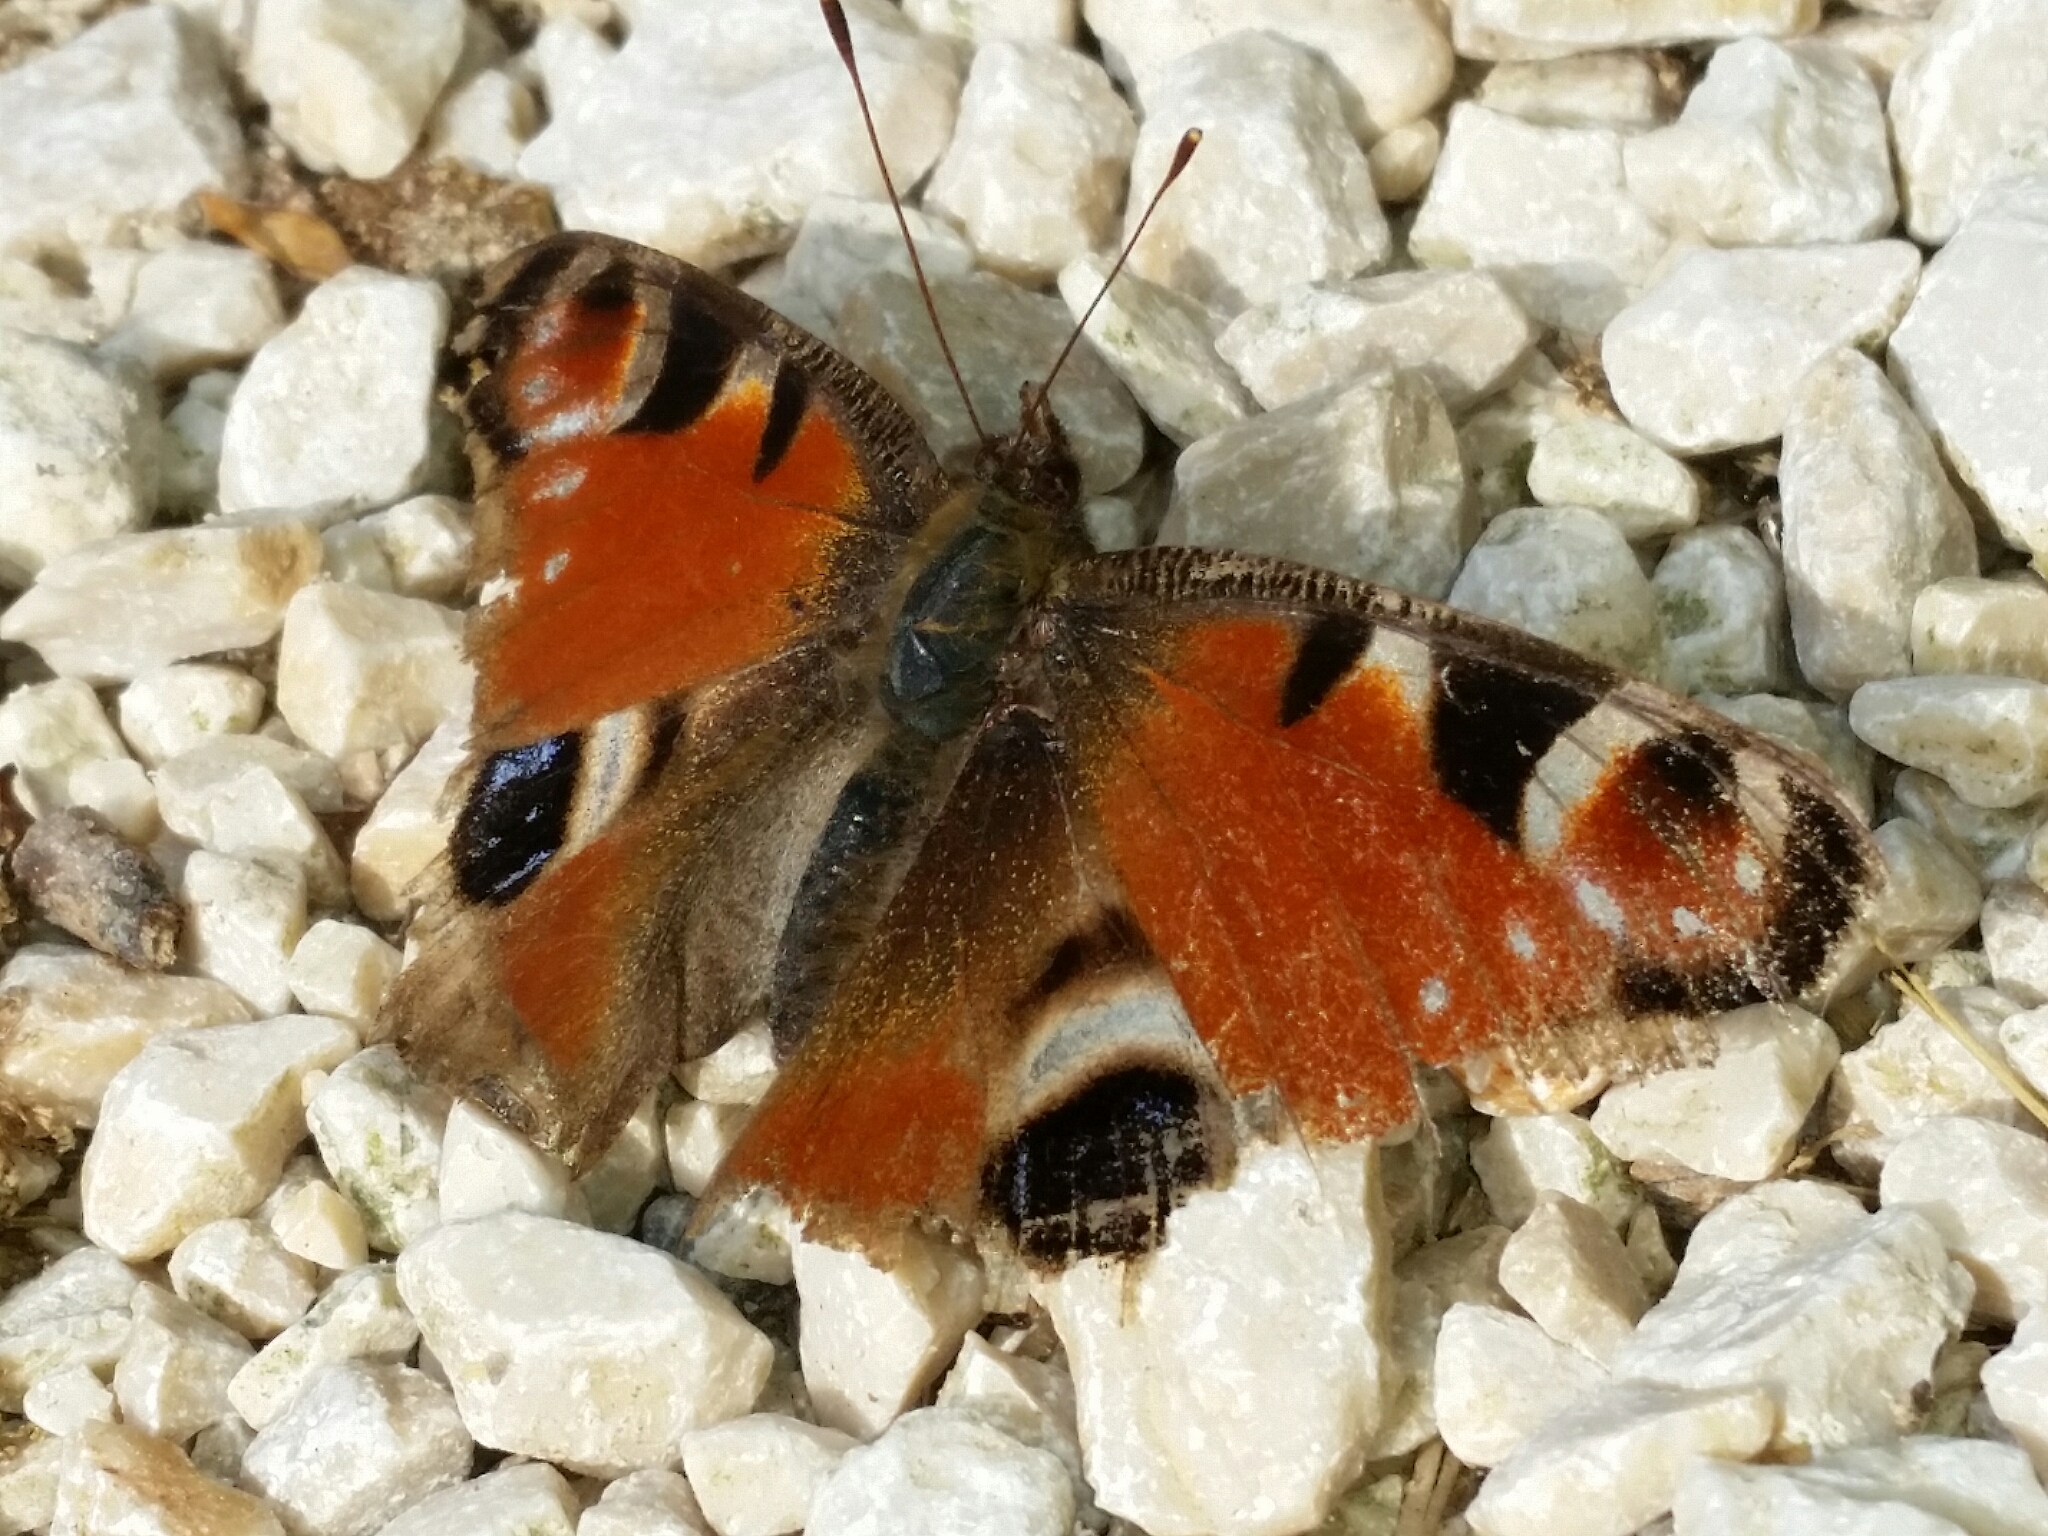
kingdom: Animalia
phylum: Arthropoda
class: Insecta
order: Lepidoptera
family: Nymphalidae
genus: Aglais
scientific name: Aglais io
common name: Peacock
